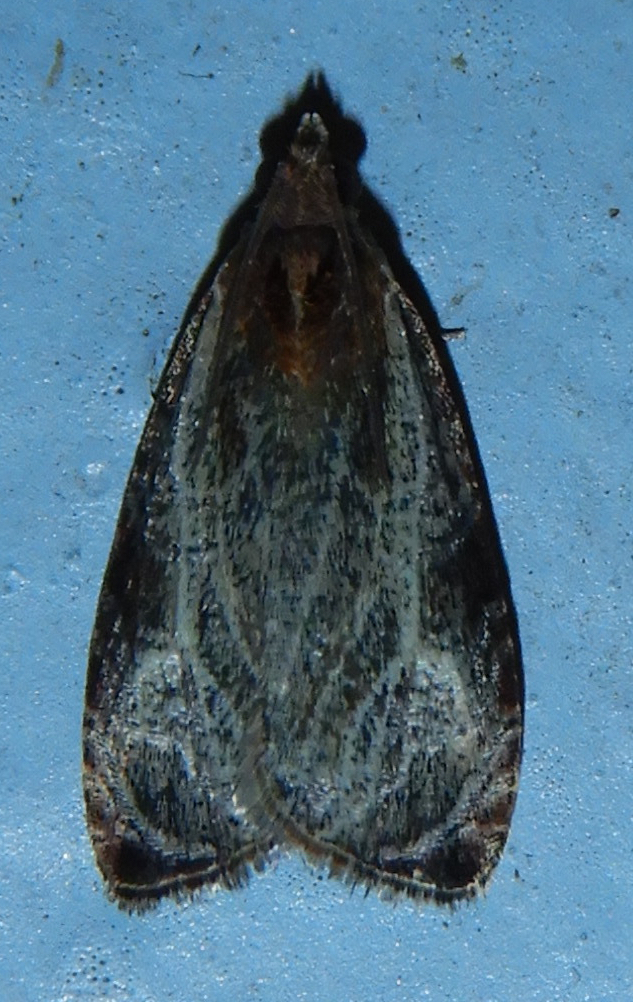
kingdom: Animalia
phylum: Arthropoda
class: Insecta
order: Lepidoptera
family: Tortricidae
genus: Olethreutes
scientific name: Olethreutes quadrifidum
